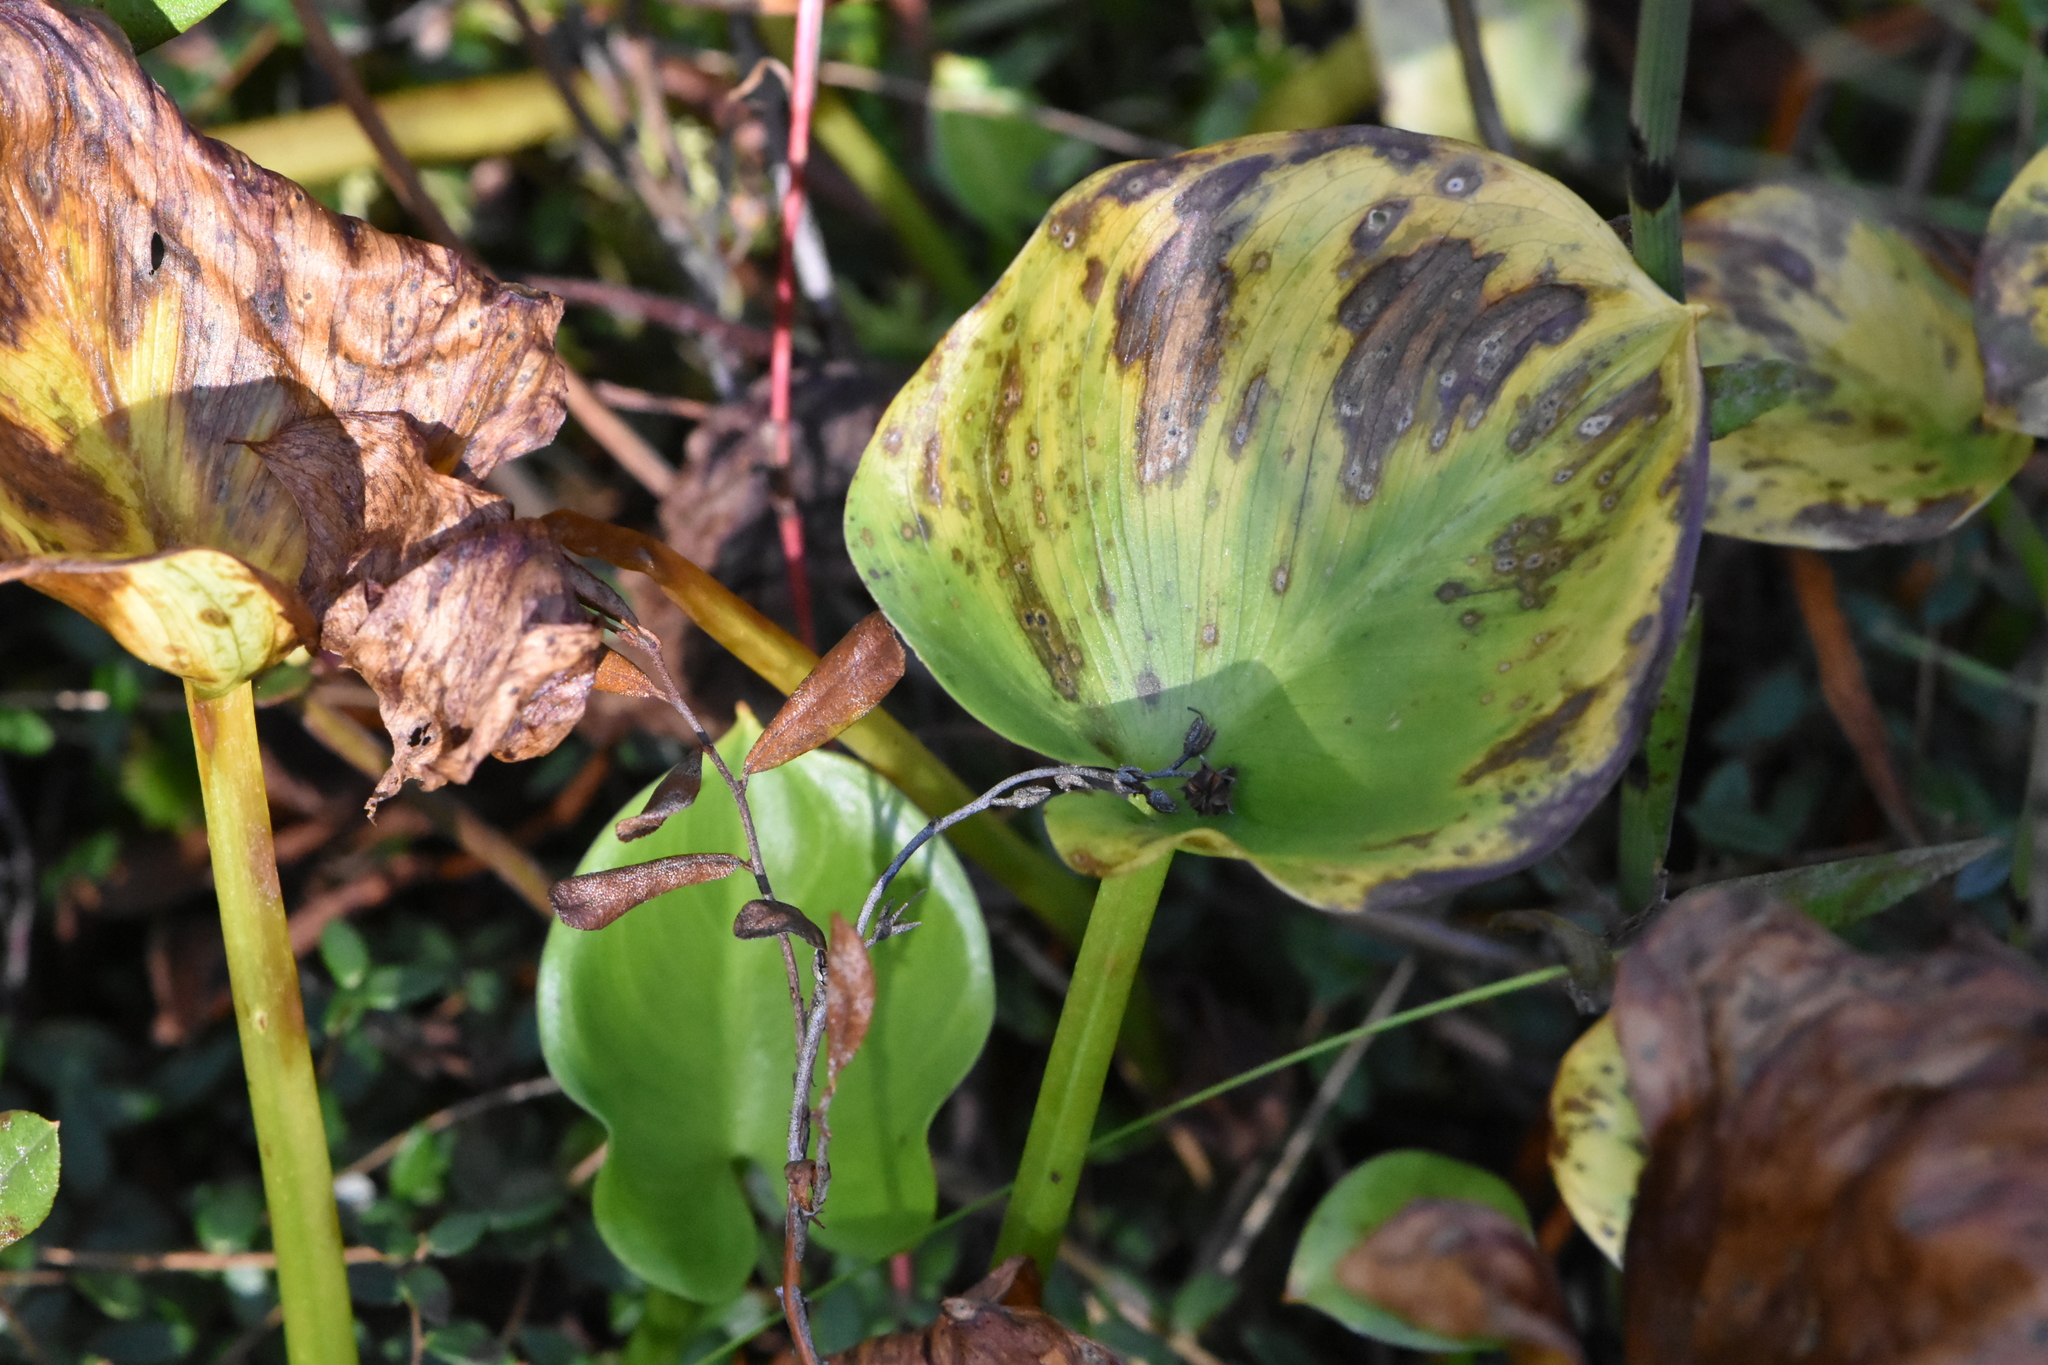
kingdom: Plantae
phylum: Tracheophyta
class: Liliopsida
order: Alismatales
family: Araceae
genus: Calla
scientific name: Calla palustris
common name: Bog arum
